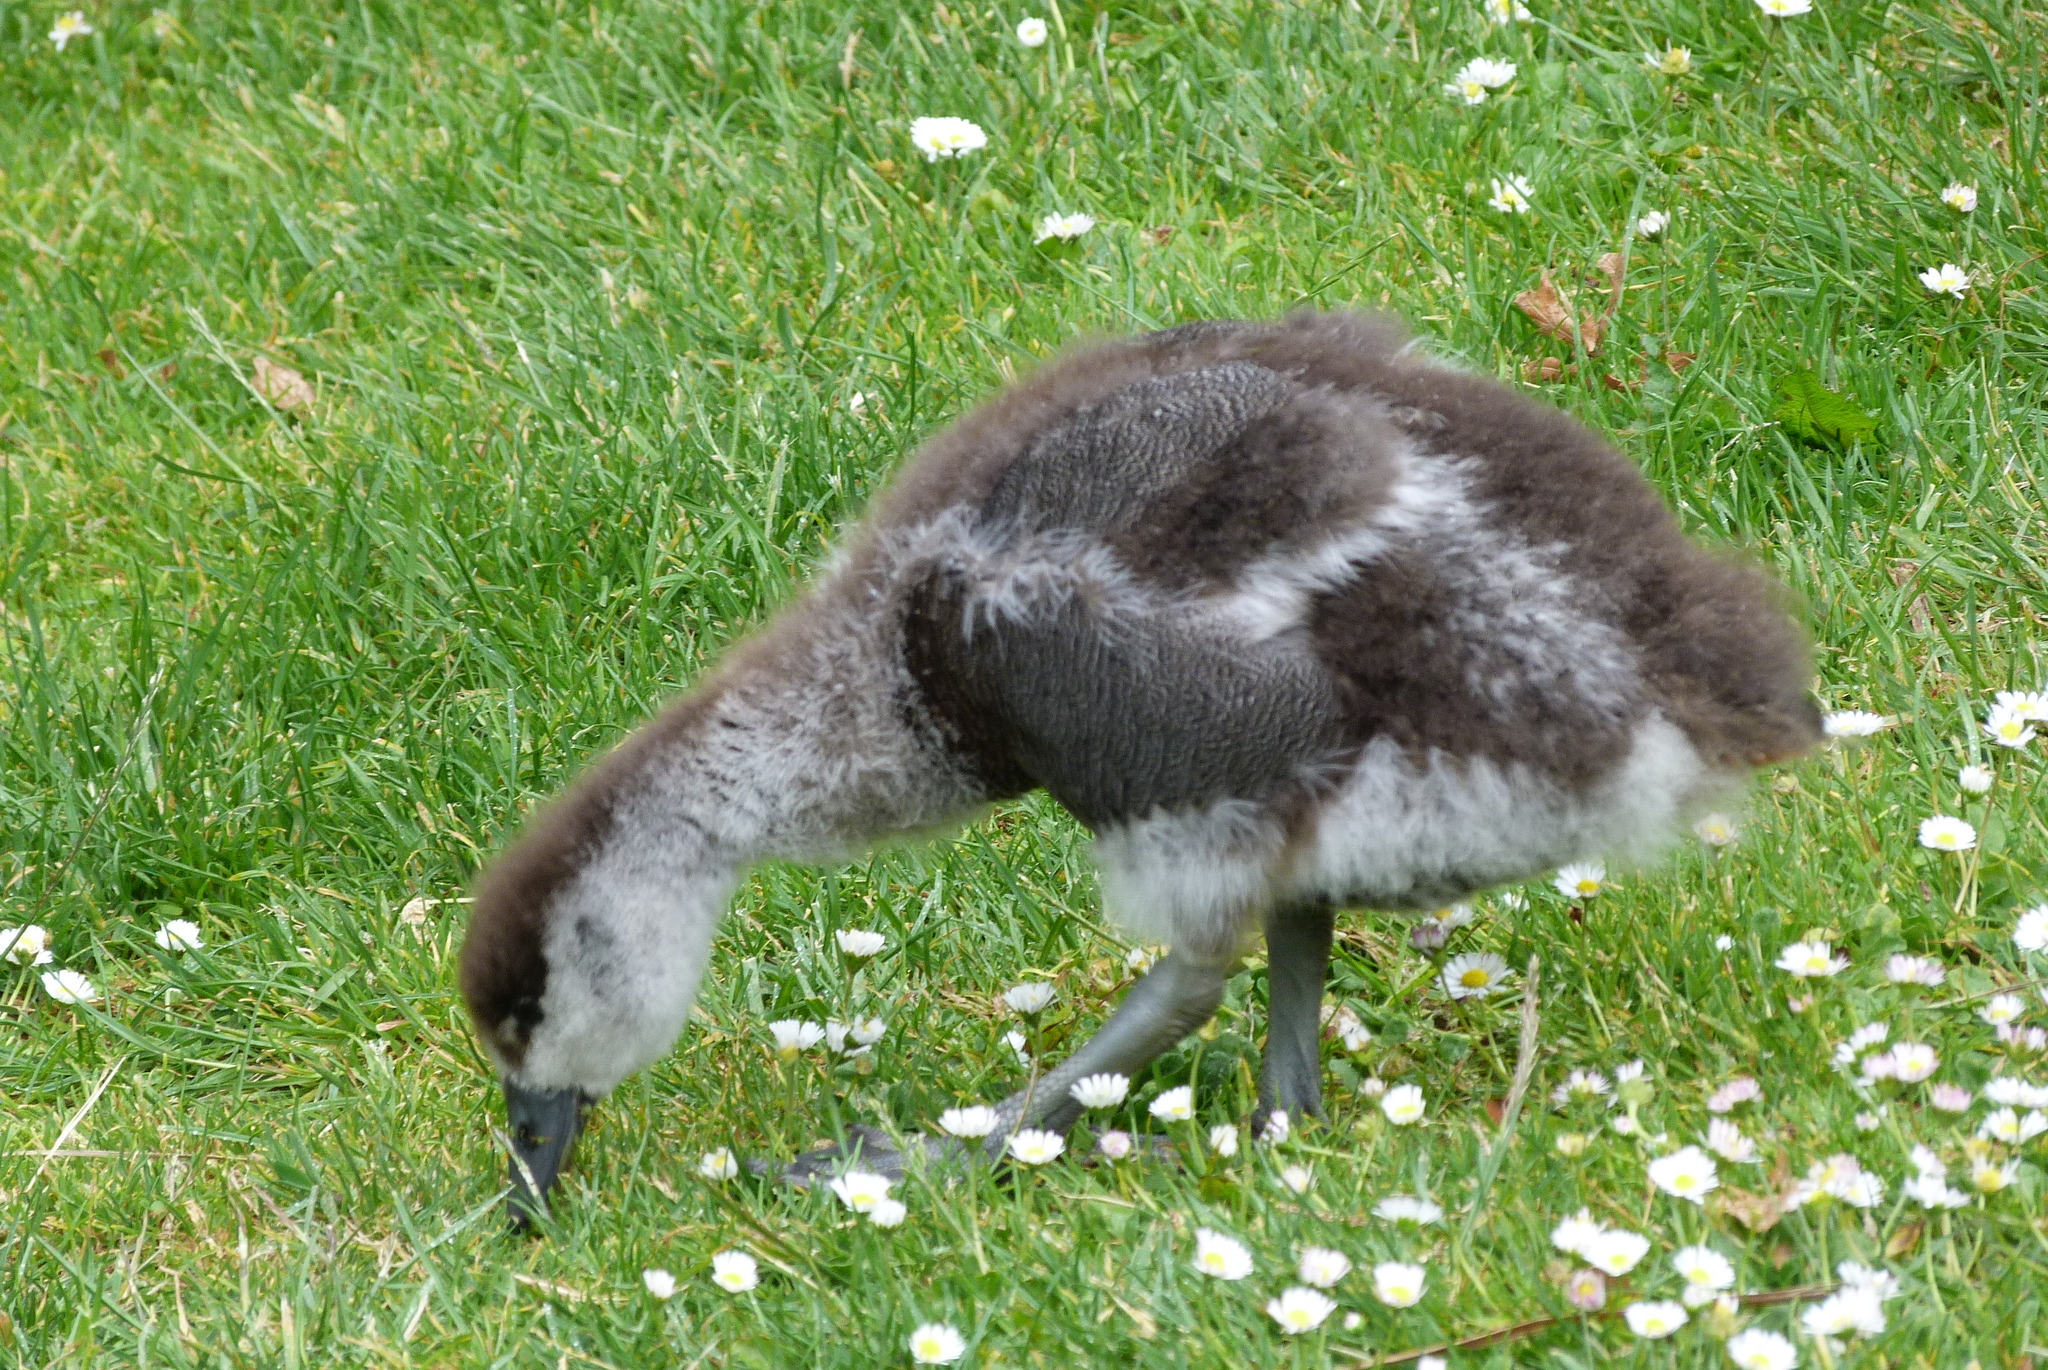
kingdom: Animalia
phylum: Chordata
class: Aves
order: Anseriformes
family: Anatidae
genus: Tadorna
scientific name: Tadorna variegata
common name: Paradise shelduck
